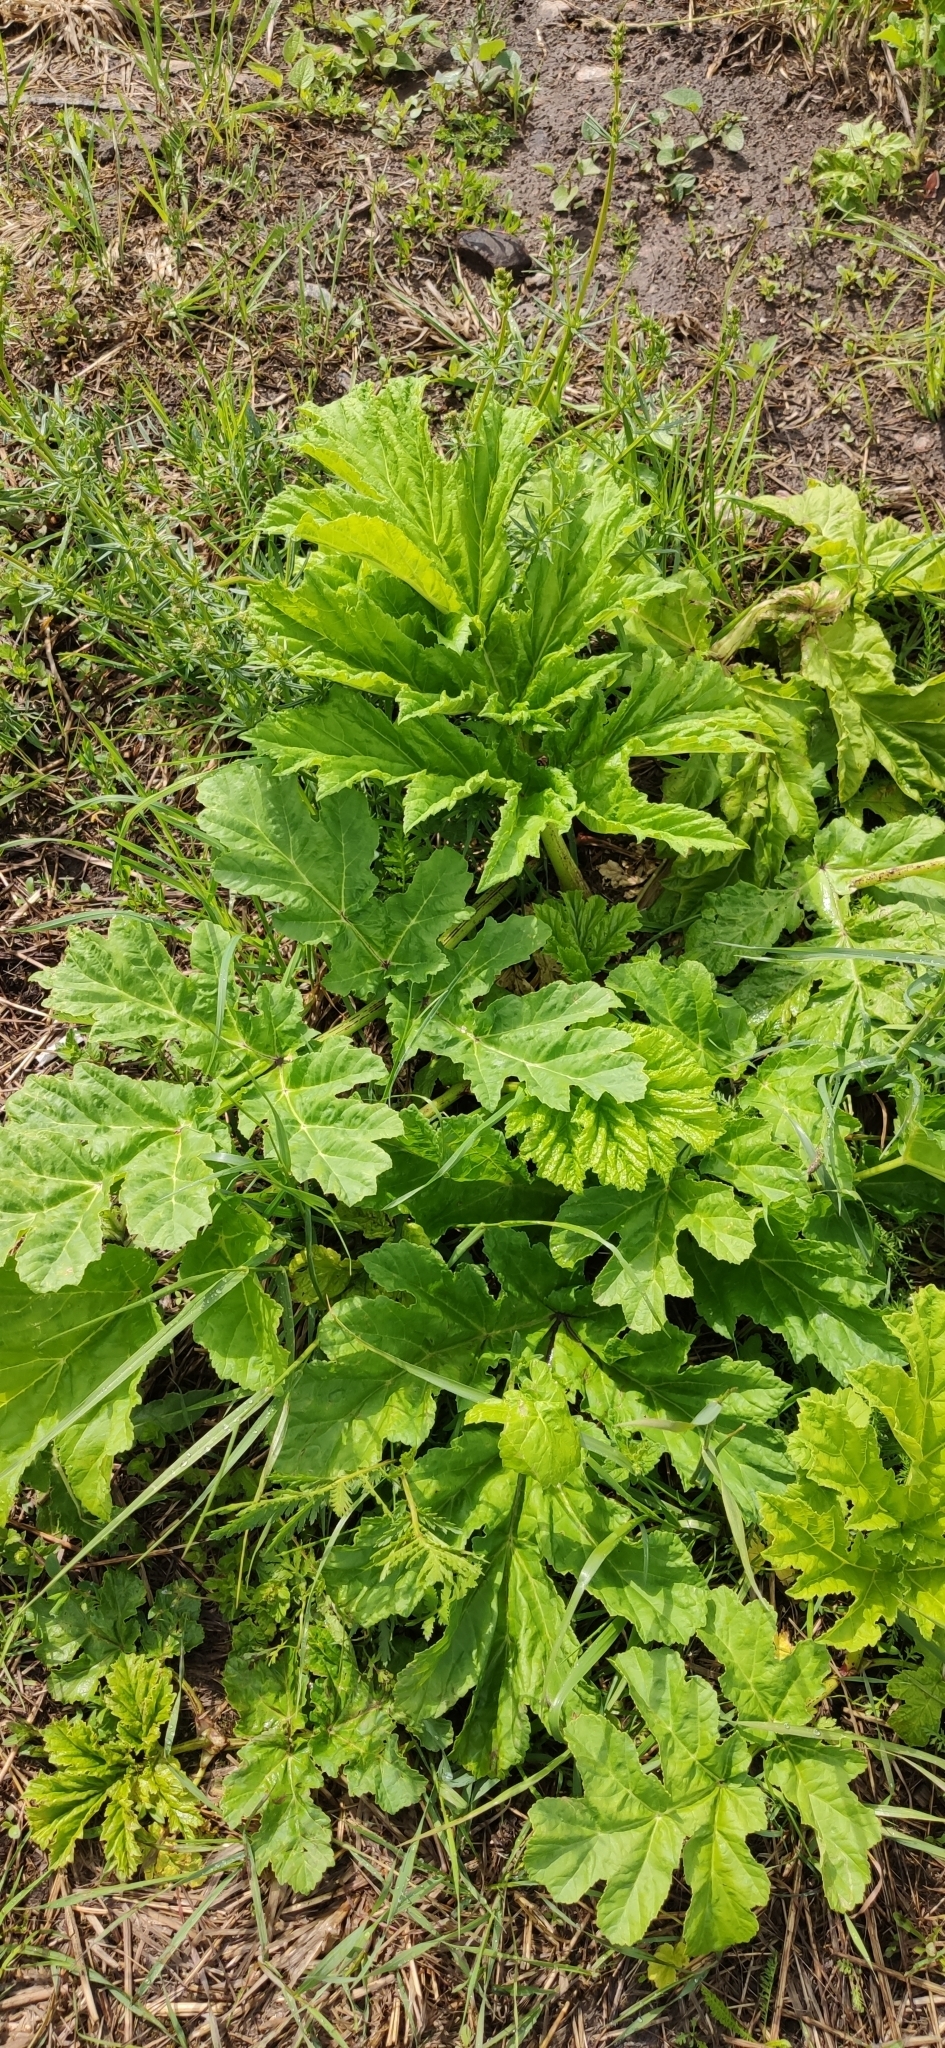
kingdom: Plantae
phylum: Tracheophyta
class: Magnoliopsida
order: Apiales
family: Apiaceae
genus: Heracleum
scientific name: Heracleum sosnowskyi
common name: Sosnowsky's hogweed
